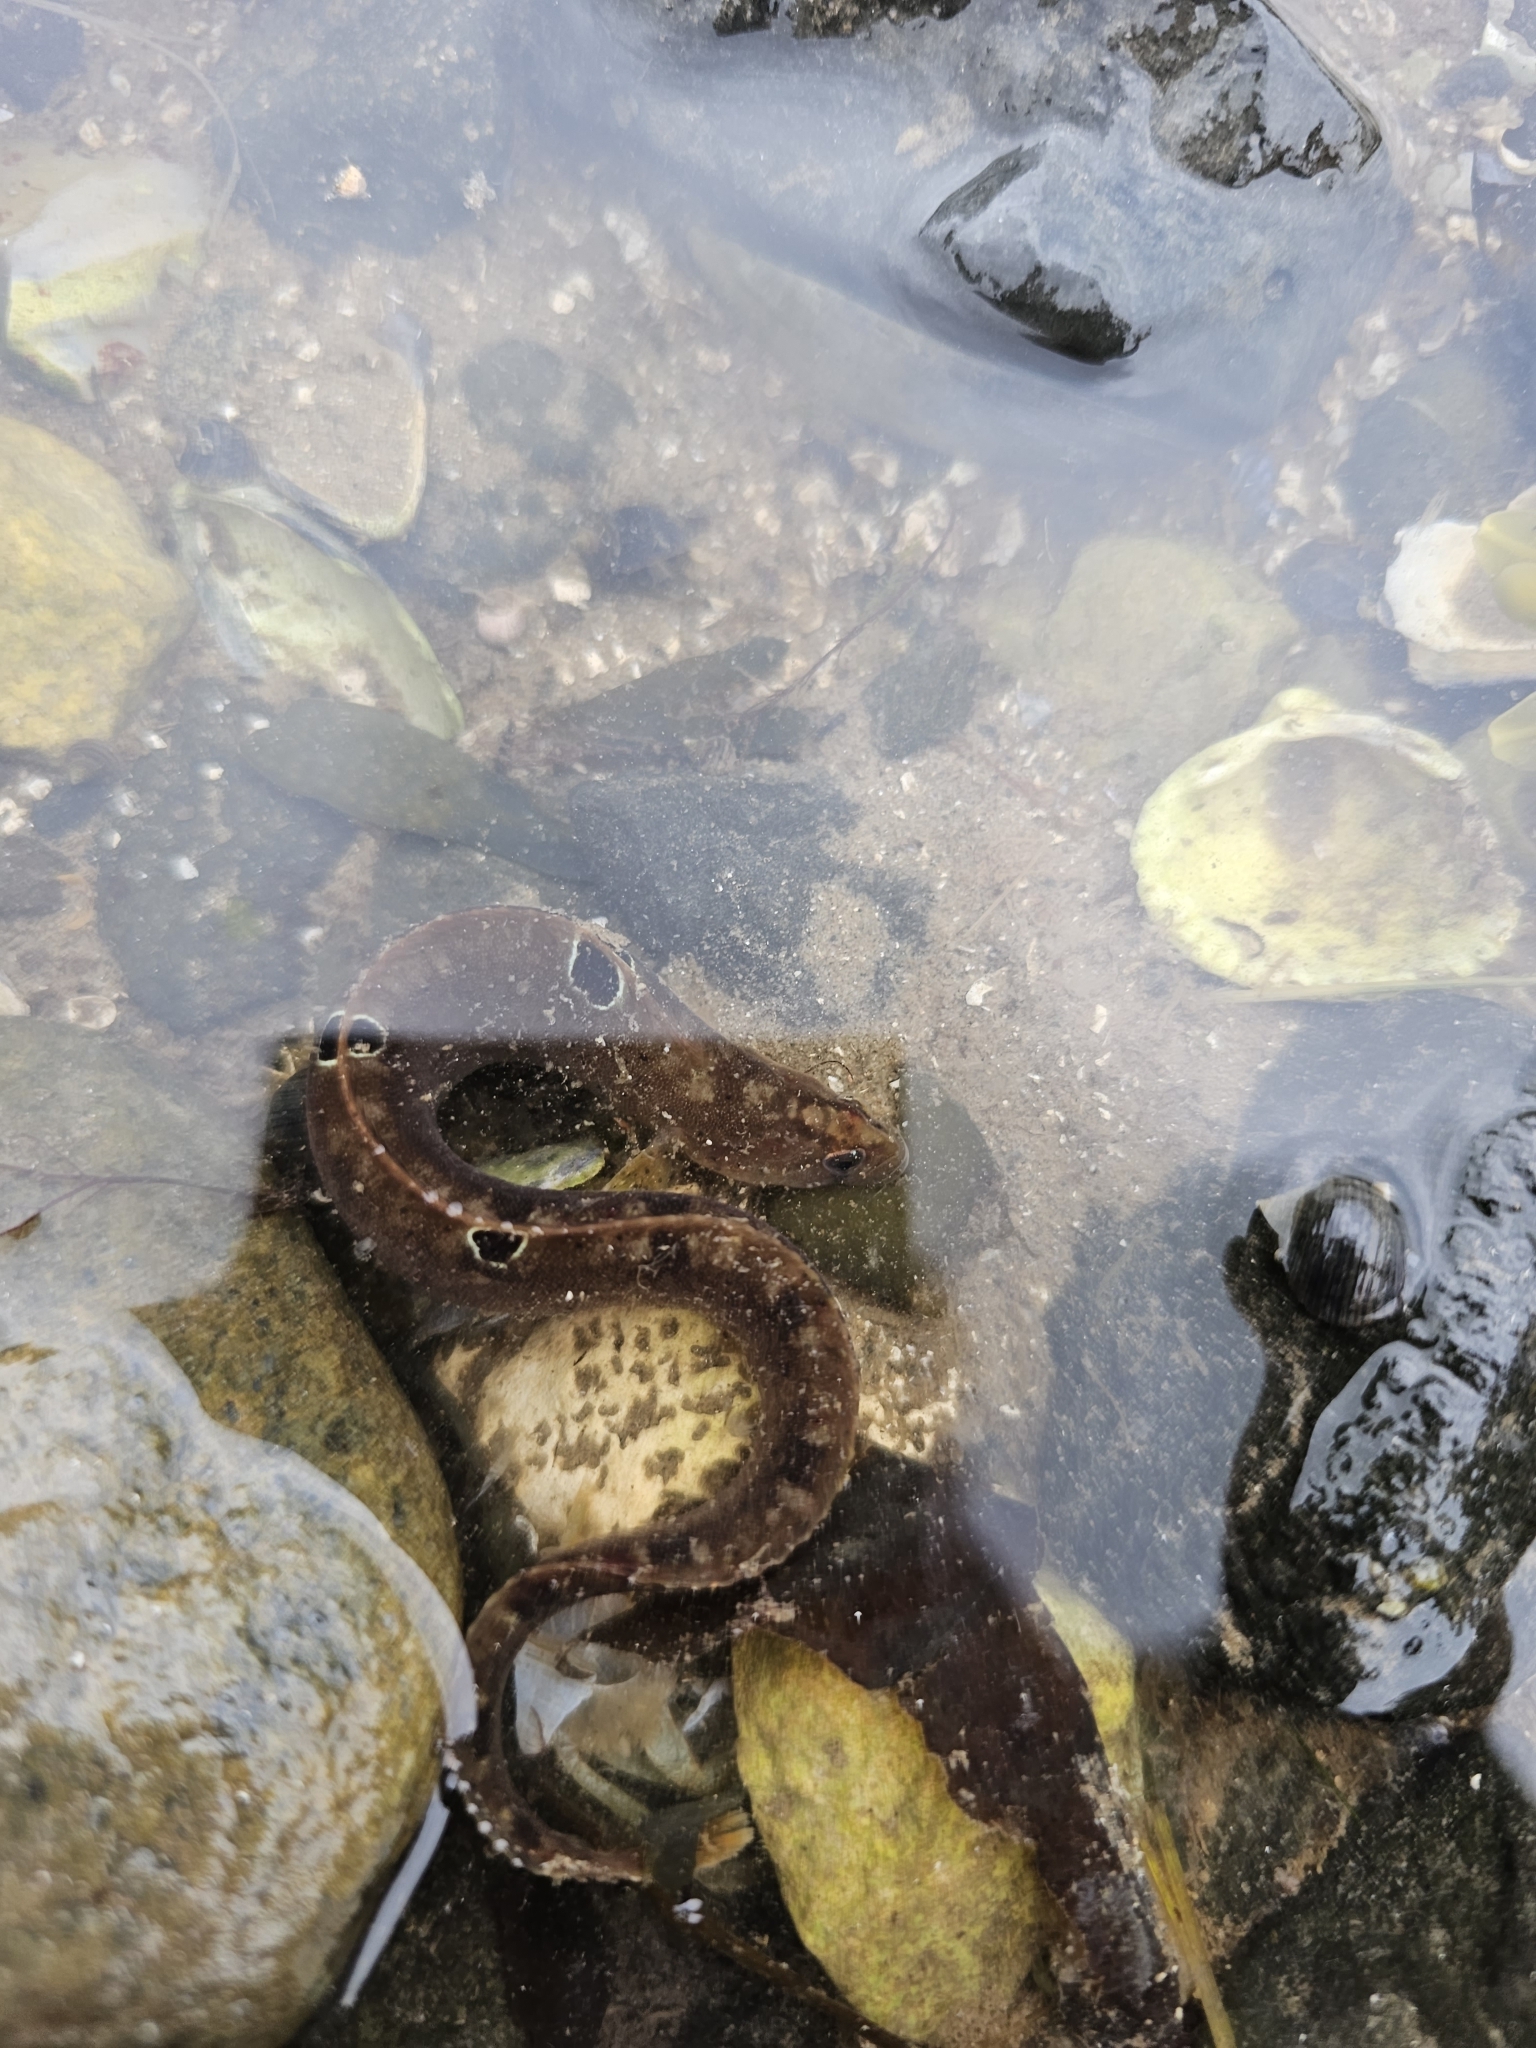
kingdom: Animalia
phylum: Chordata
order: Perciformes
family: Pholidae
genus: Pholis
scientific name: Pholis gunnellus
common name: Butterfish
